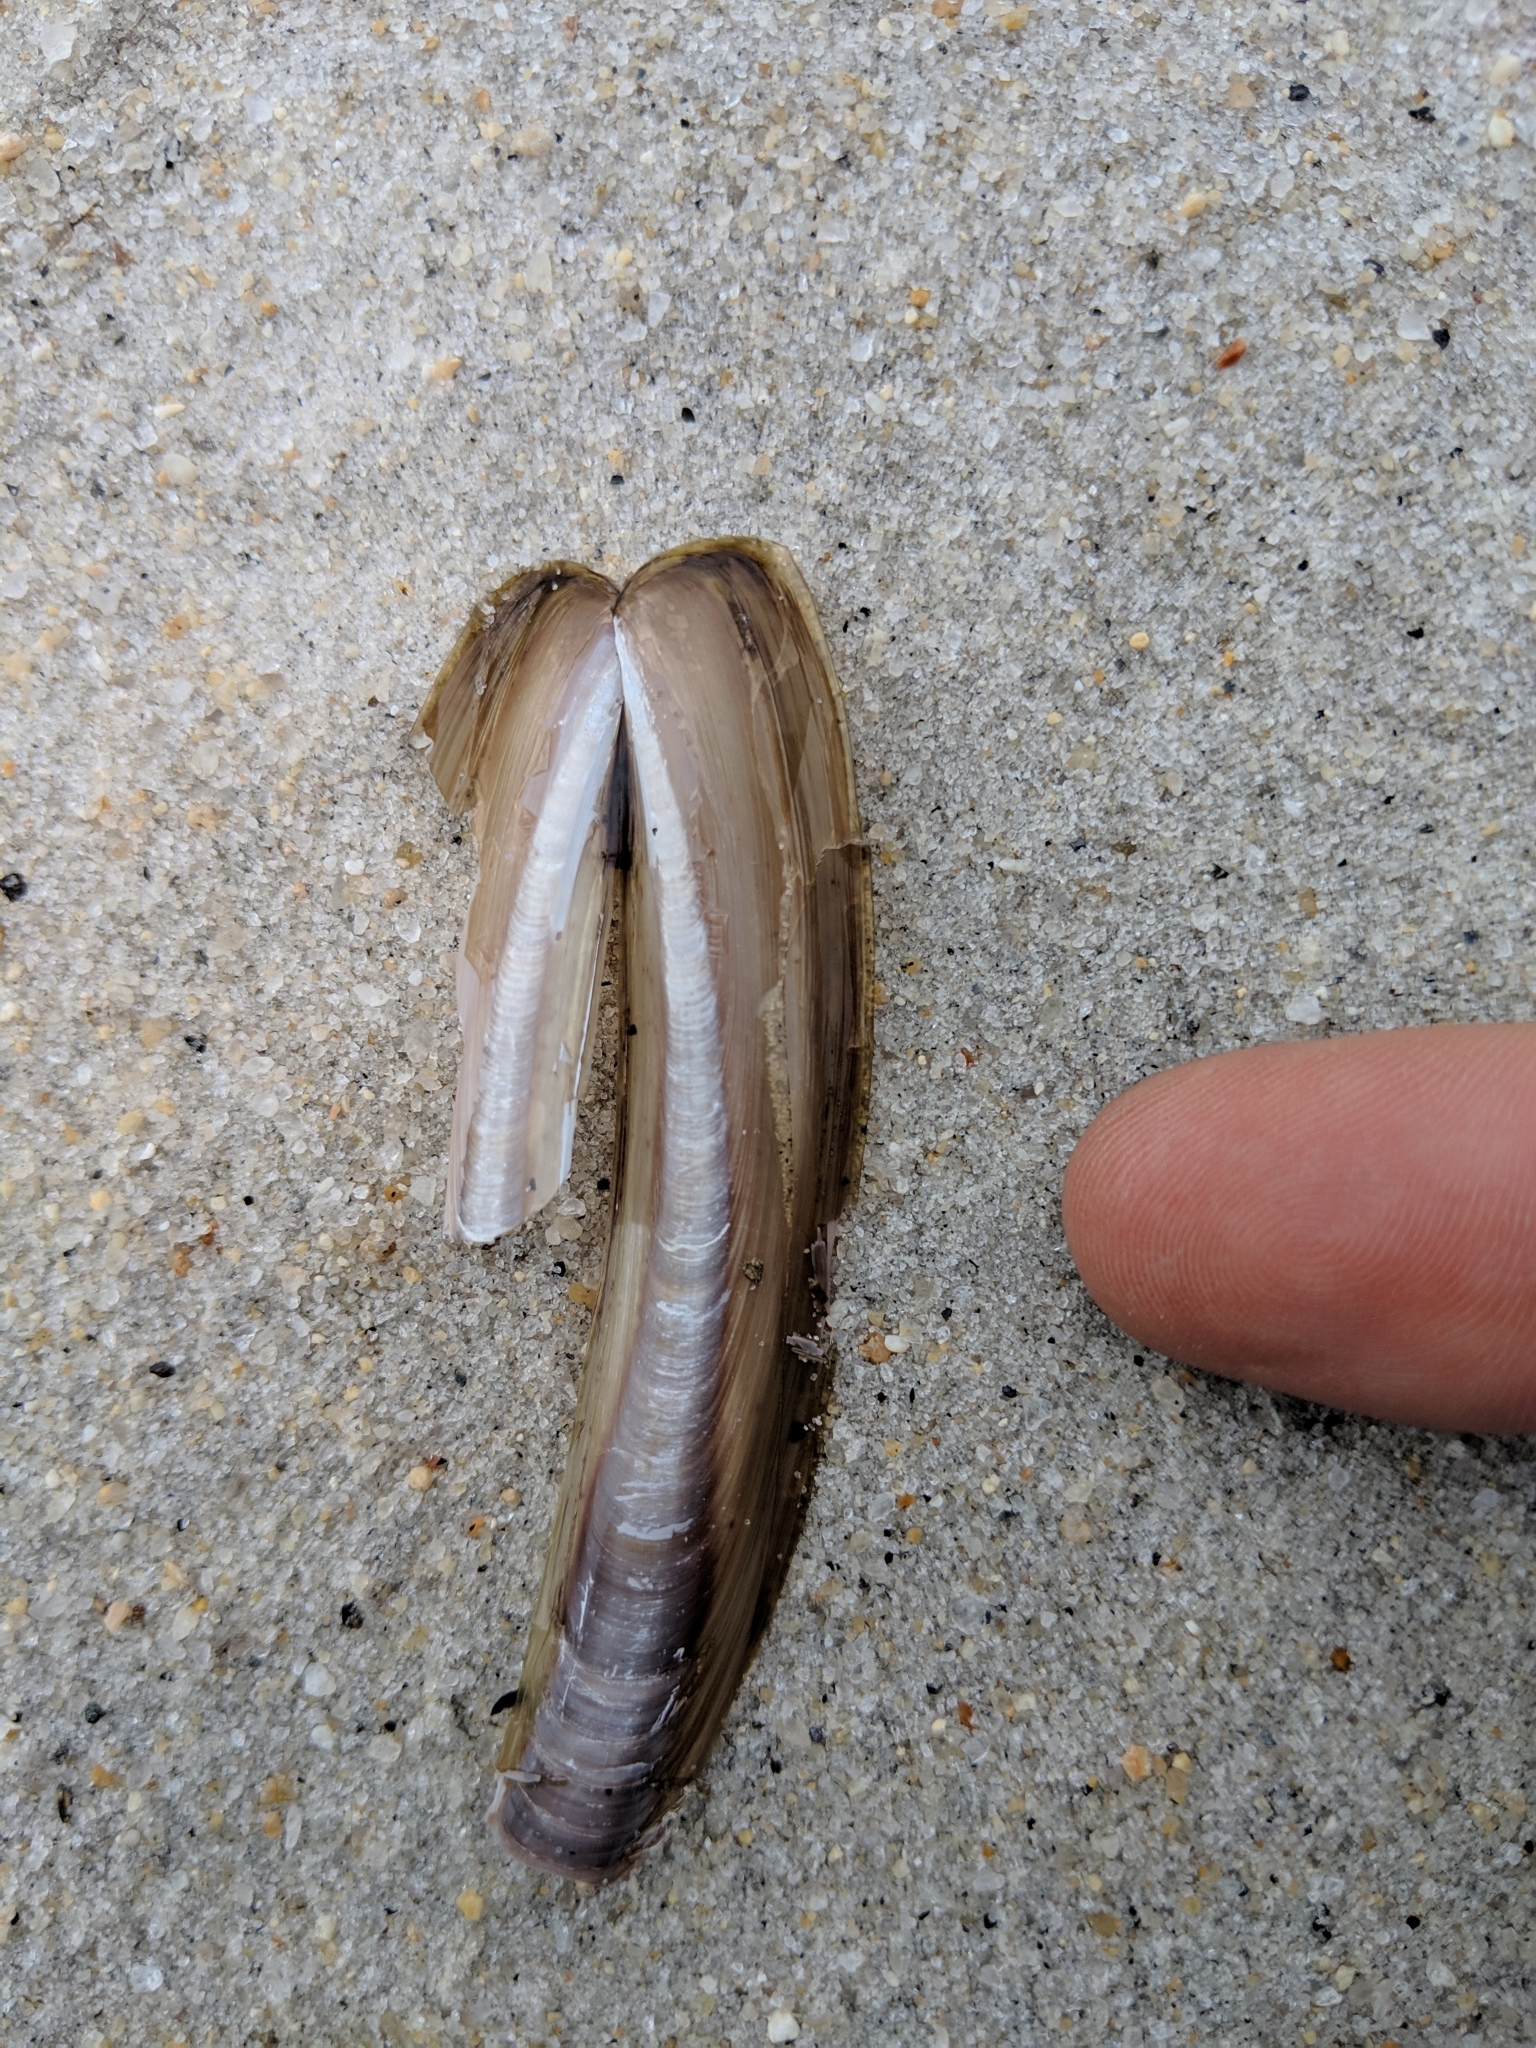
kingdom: Animalia
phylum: Mollusca
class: Bivalvia
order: Adapedonta
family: Pharidae
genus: Ensis
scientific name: Ensis leei
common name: American jack knife clam
